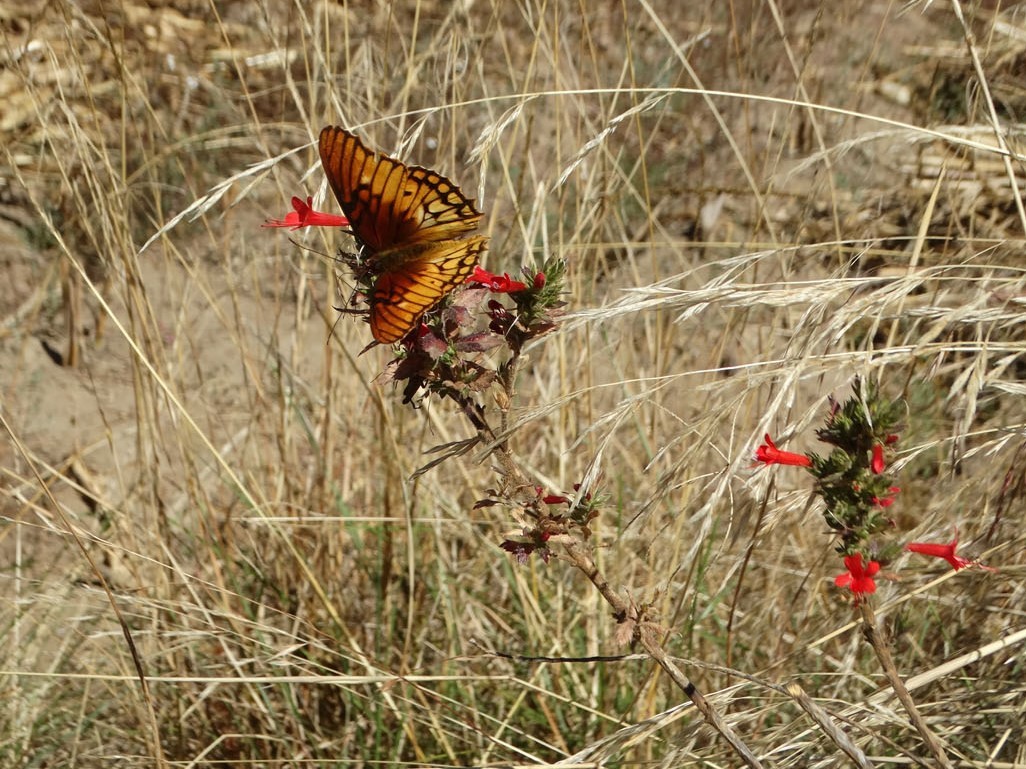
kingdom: Animalia
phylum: Arthropoda
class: Insecta
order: Lepidoptera
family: Nymphalidae
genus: Dione
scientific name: Dione moneta
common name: Mexican silverspot
